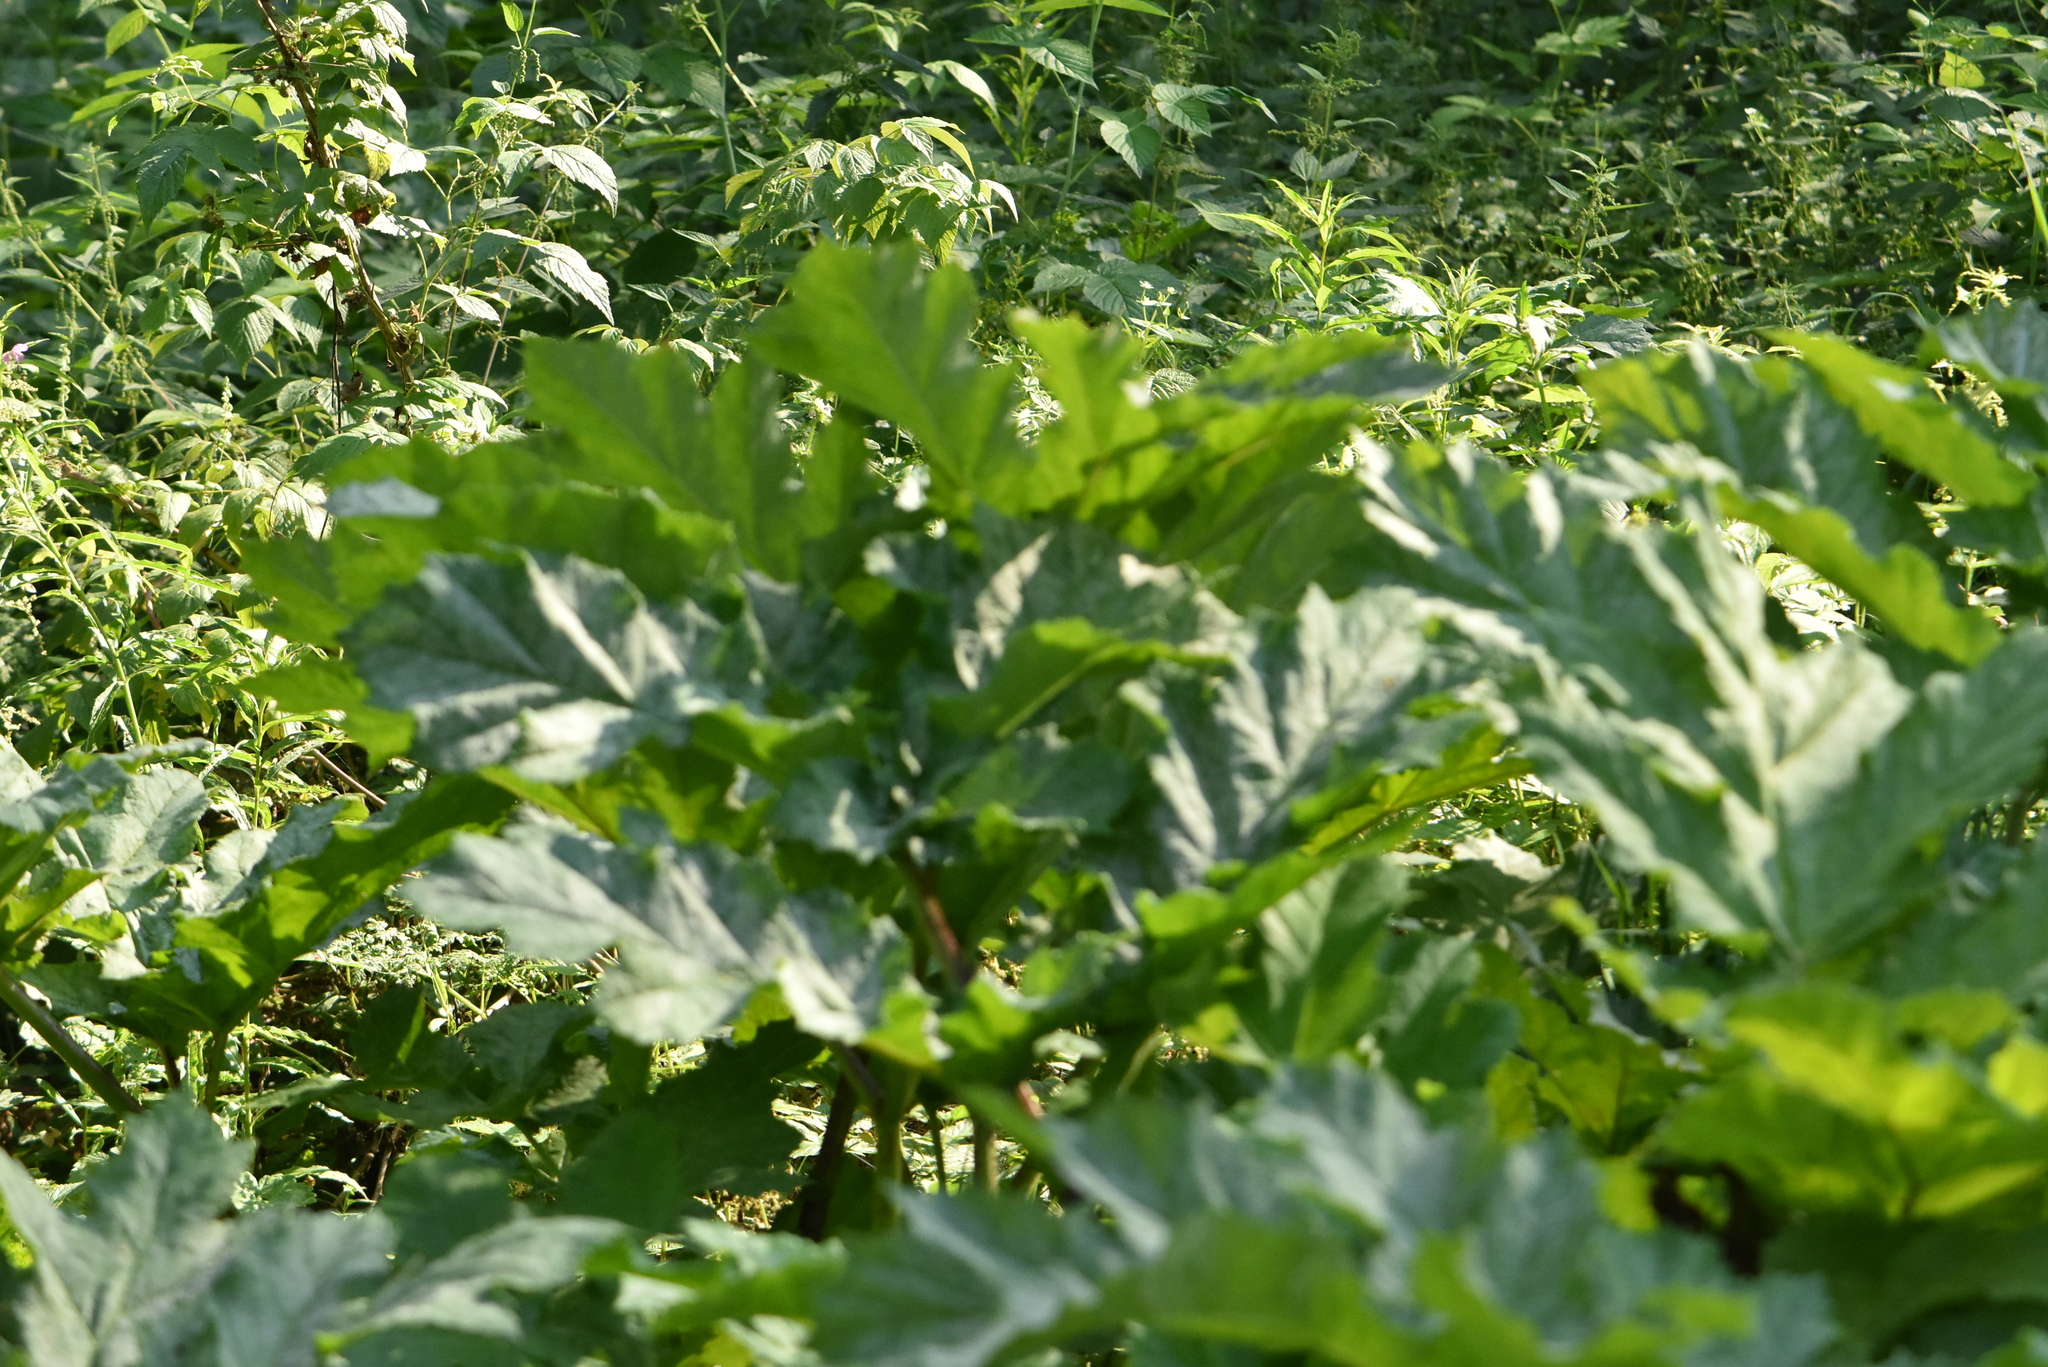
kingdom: Plantae
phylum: Tracheophyta
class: Magnoliopsida
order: Apiales
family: Apiaceae
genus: Heracleum
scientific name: Heracleum sosnowskyi
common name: Sosnowsky's hogweed
